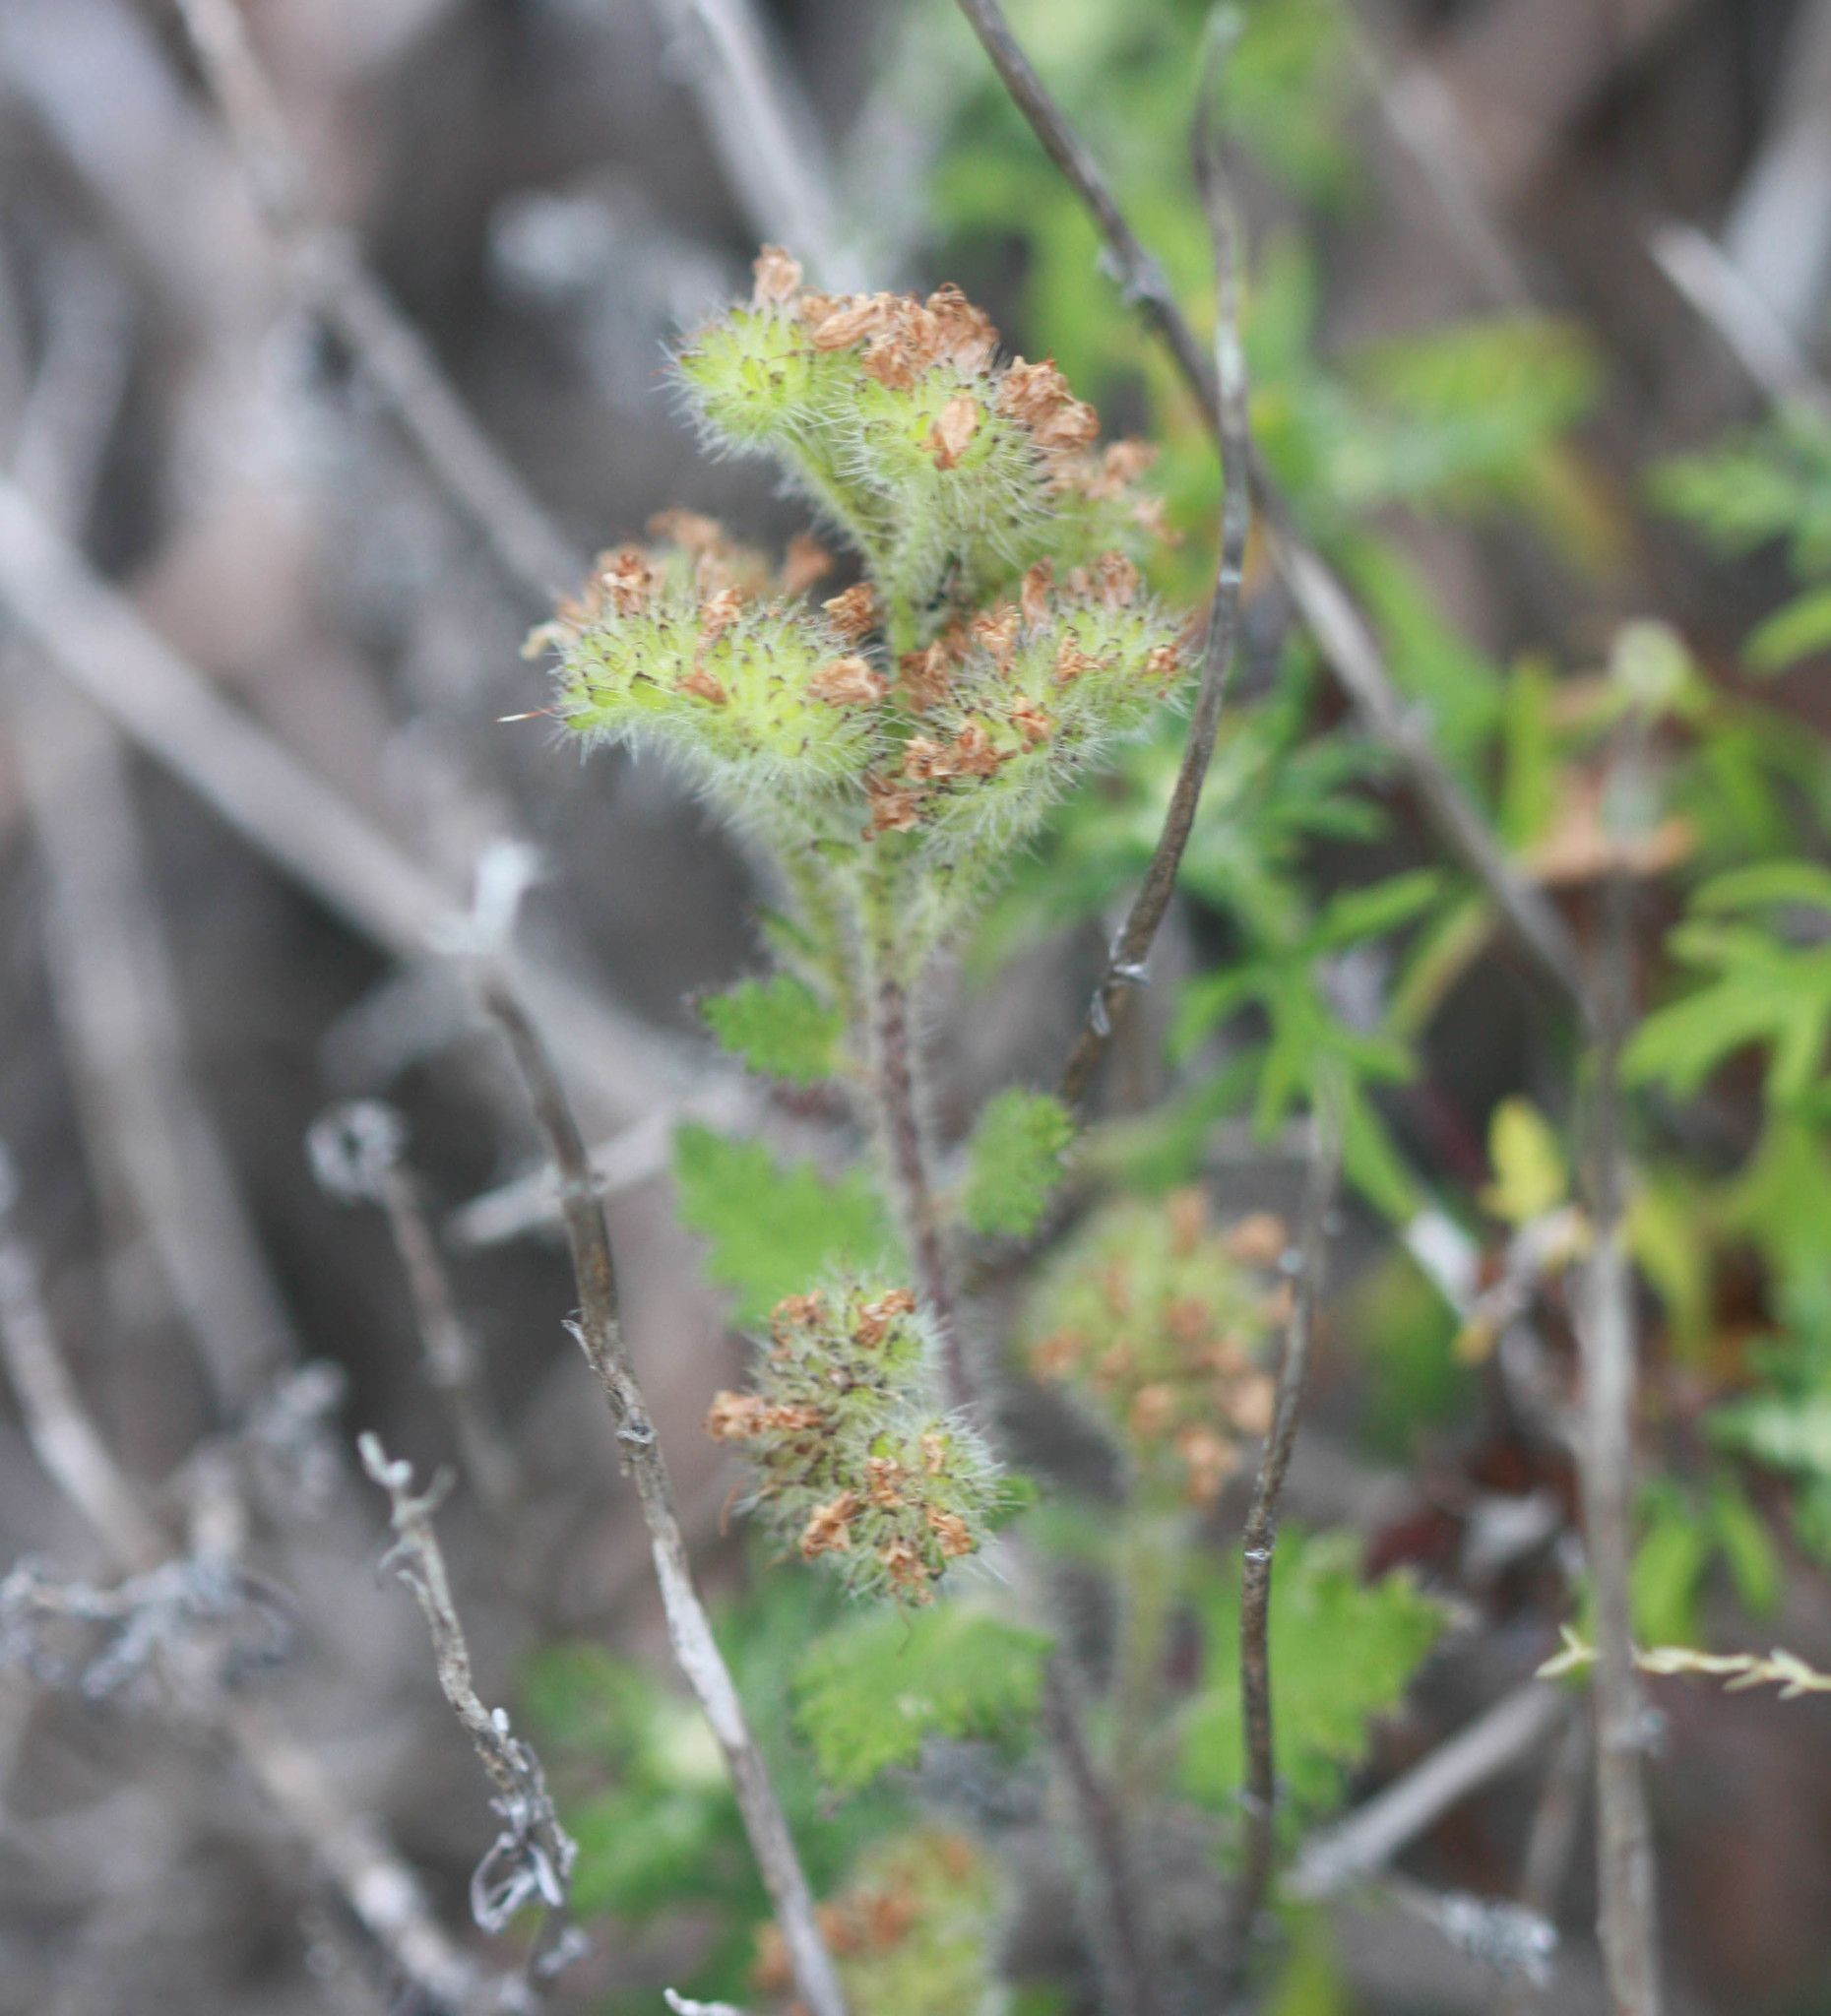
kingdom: Plantae
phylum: Tracheophyta
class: Magnoliopsida
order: Boraginales
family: Hydrophyllaceae
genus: Phacelia
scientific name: Phacelia malvifolia
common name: Mallow-leaf phacelia
